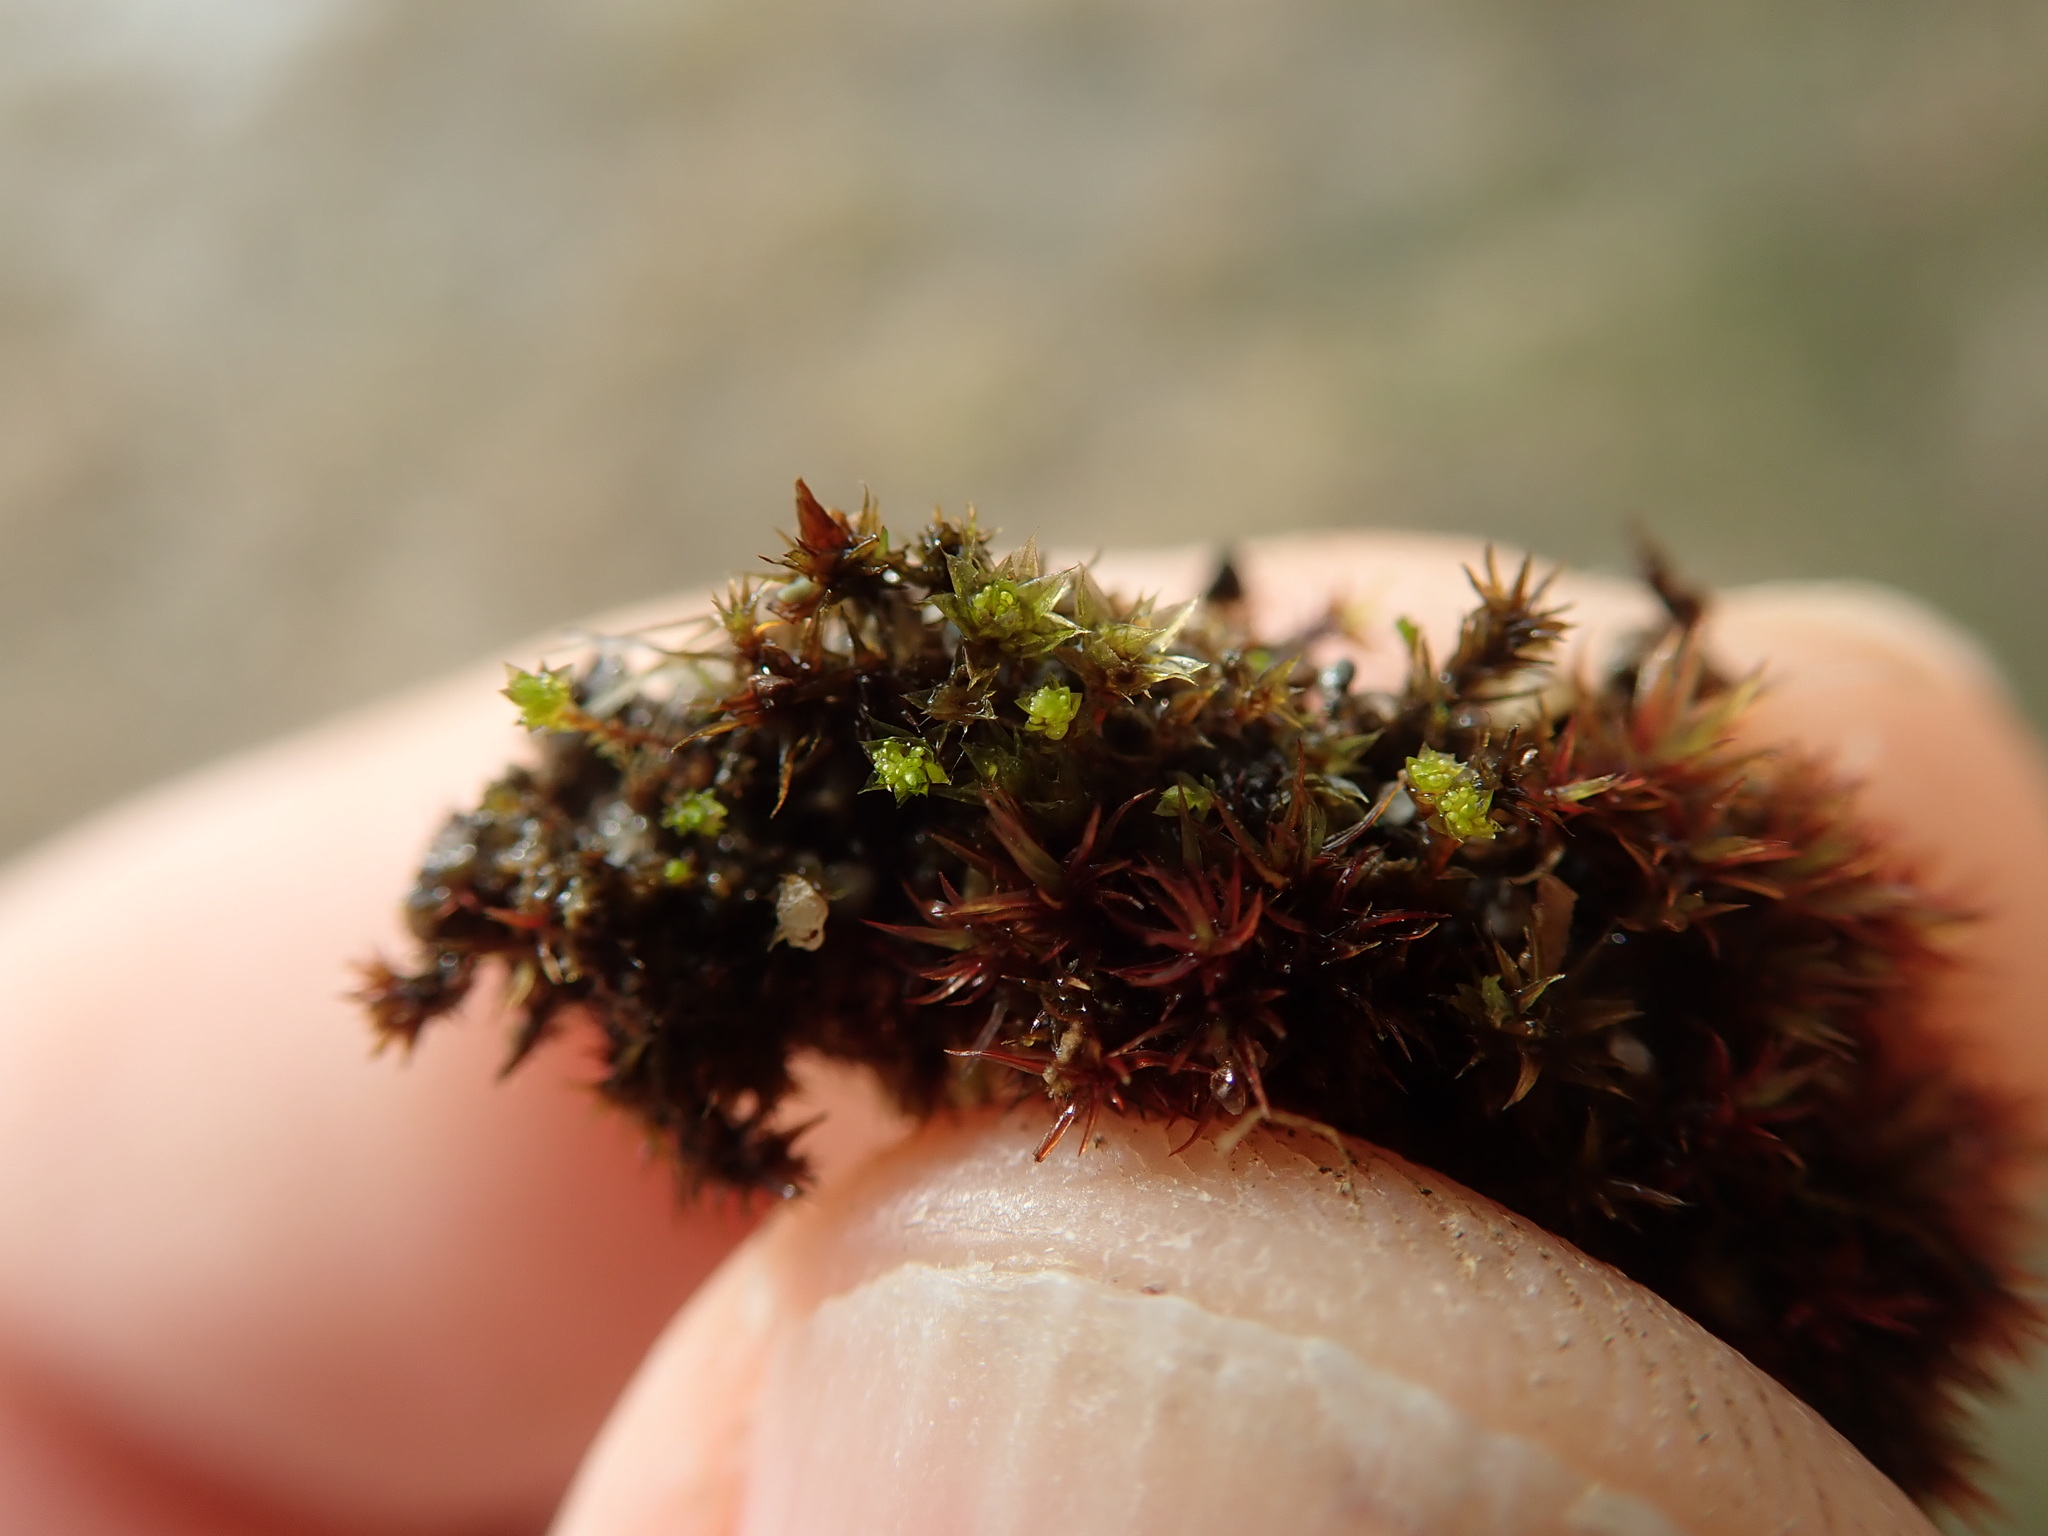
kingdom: Plantae
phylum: Bryophyta
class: Bryopsida
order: Bryales
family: Bryaceae
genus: Gemmabryum
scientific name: Gemmabryum
